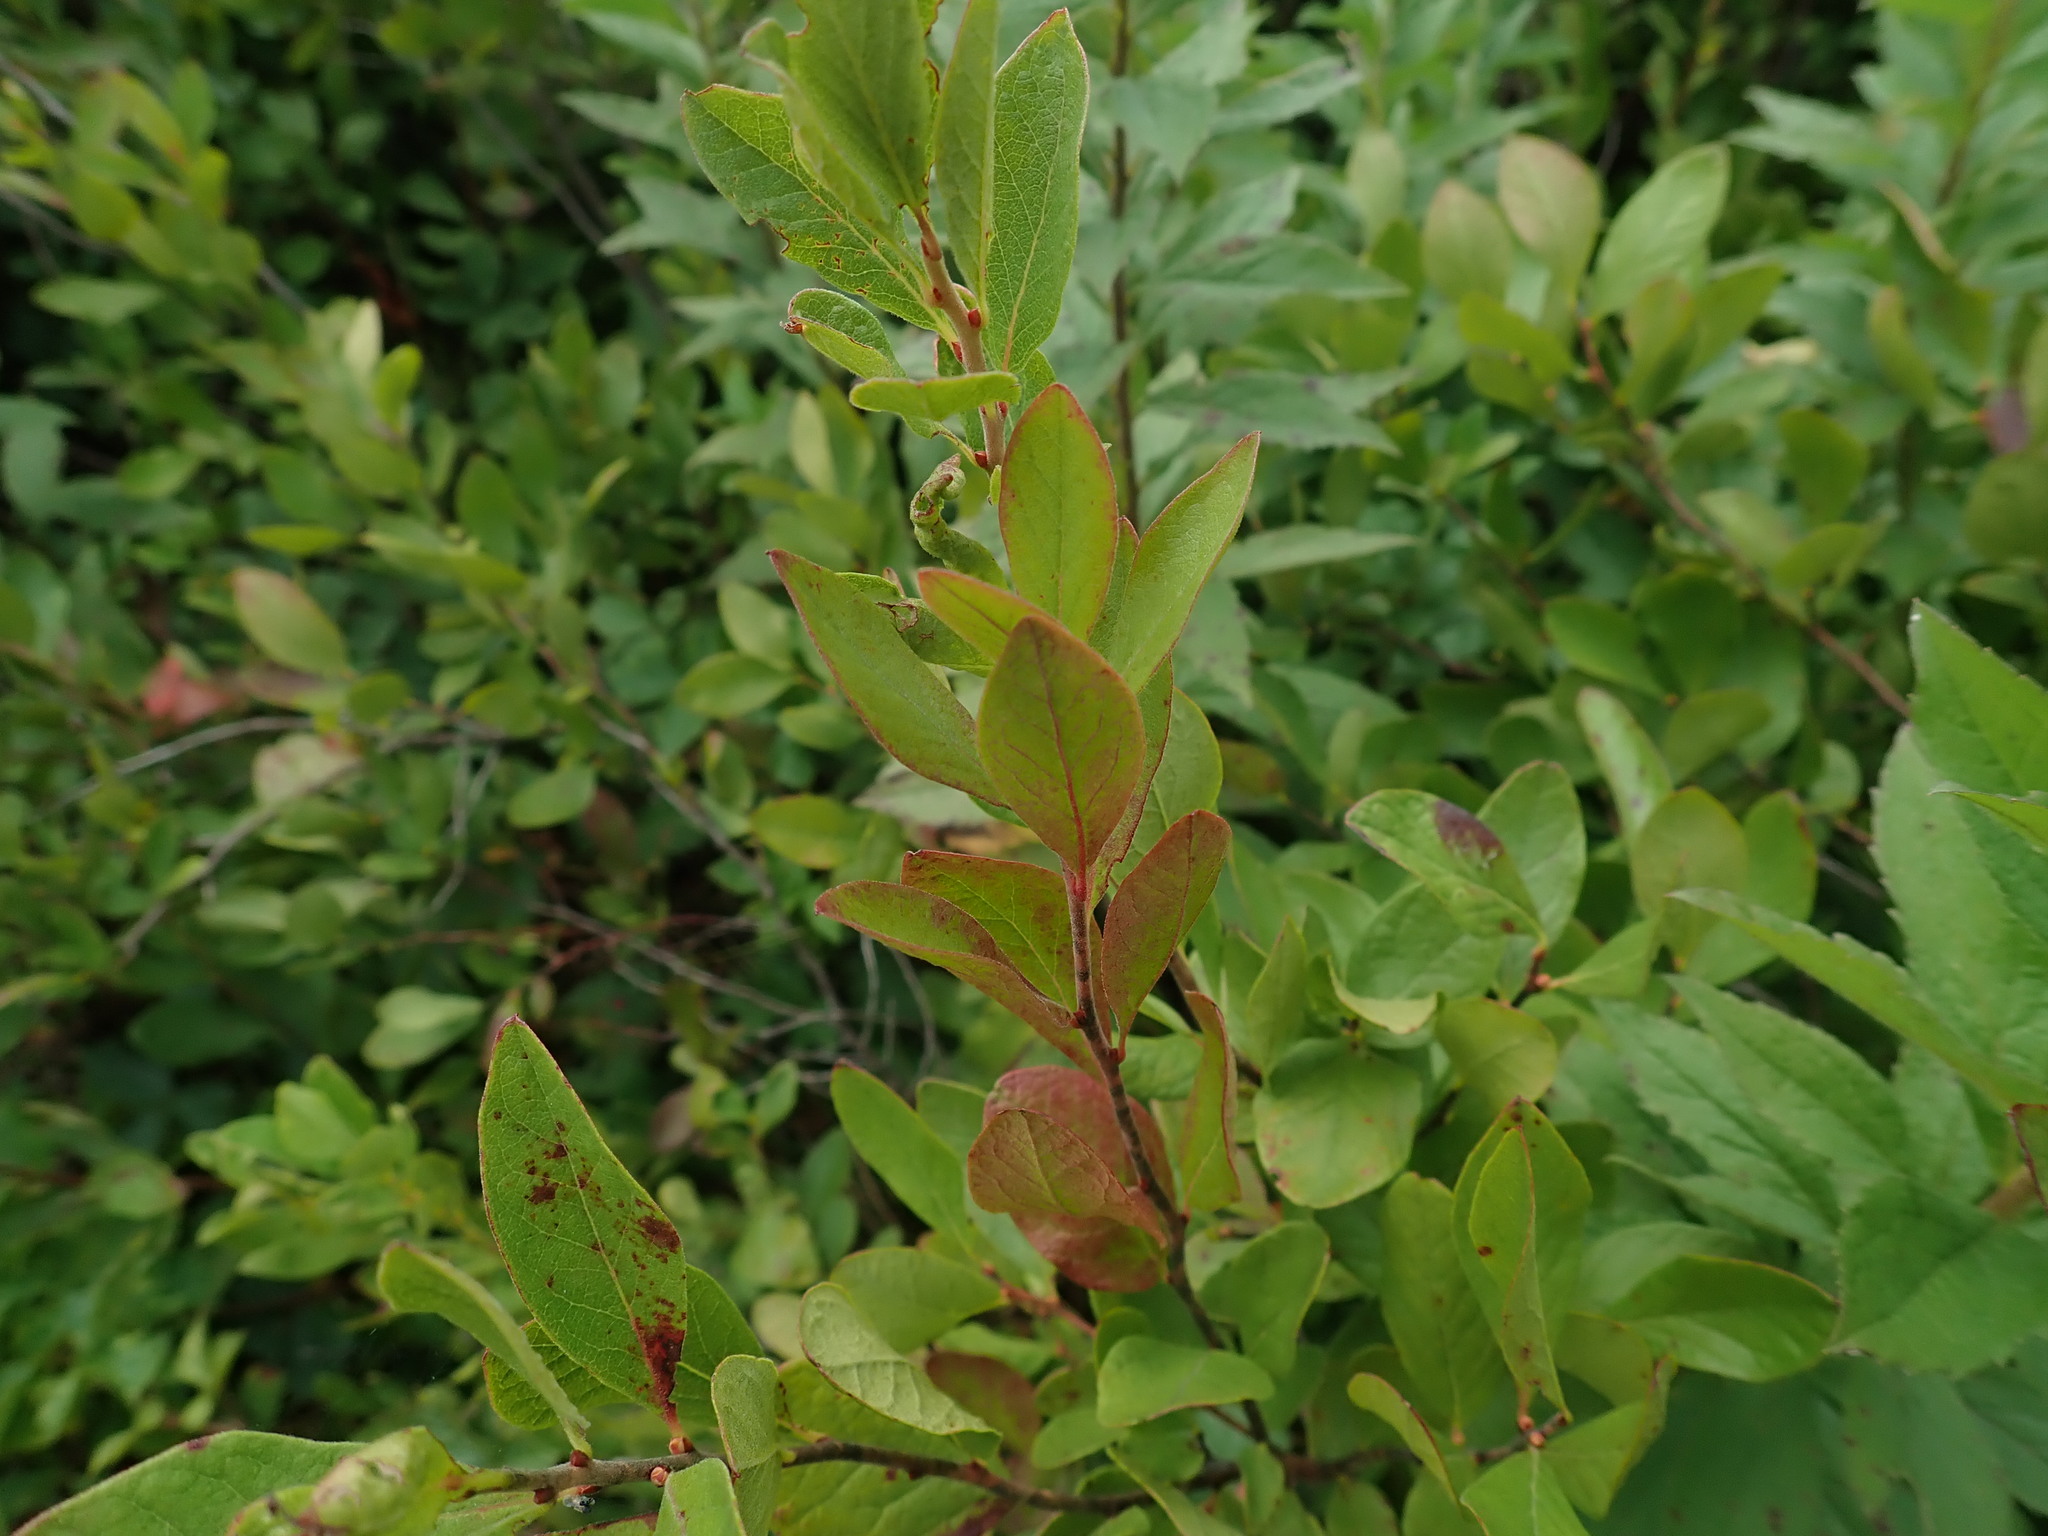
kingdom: Plantae
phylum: Tracheophyta
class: Magnoliopsida
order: Ericales
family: Ericaceae
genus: Gaylussacia
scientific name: Gaylussacia baccata
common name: Black huckleberry
